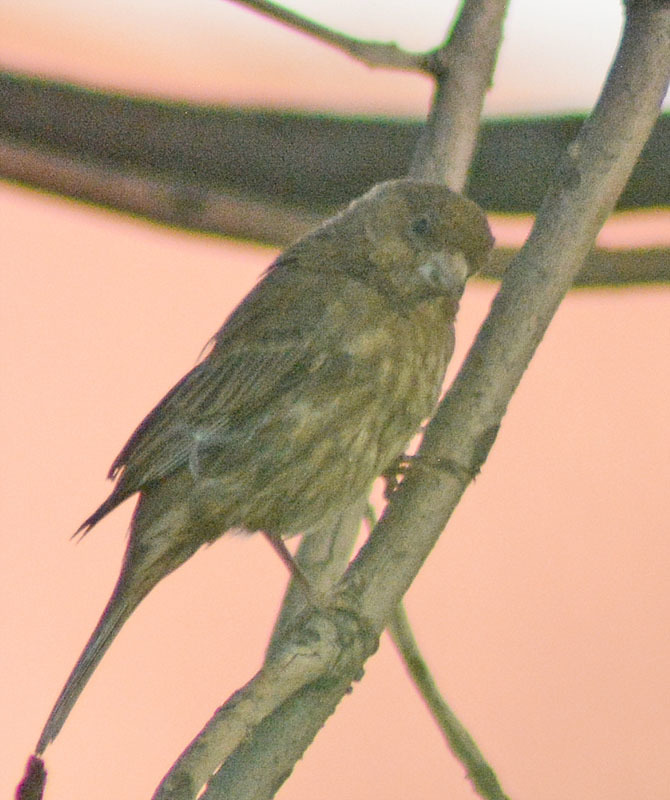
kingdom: Animalia
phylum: Chordata
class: Aves
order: Passeriformes
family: Fringillidae
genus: Haemorhous
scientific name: Haemorhous mexicanus
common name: House finch
